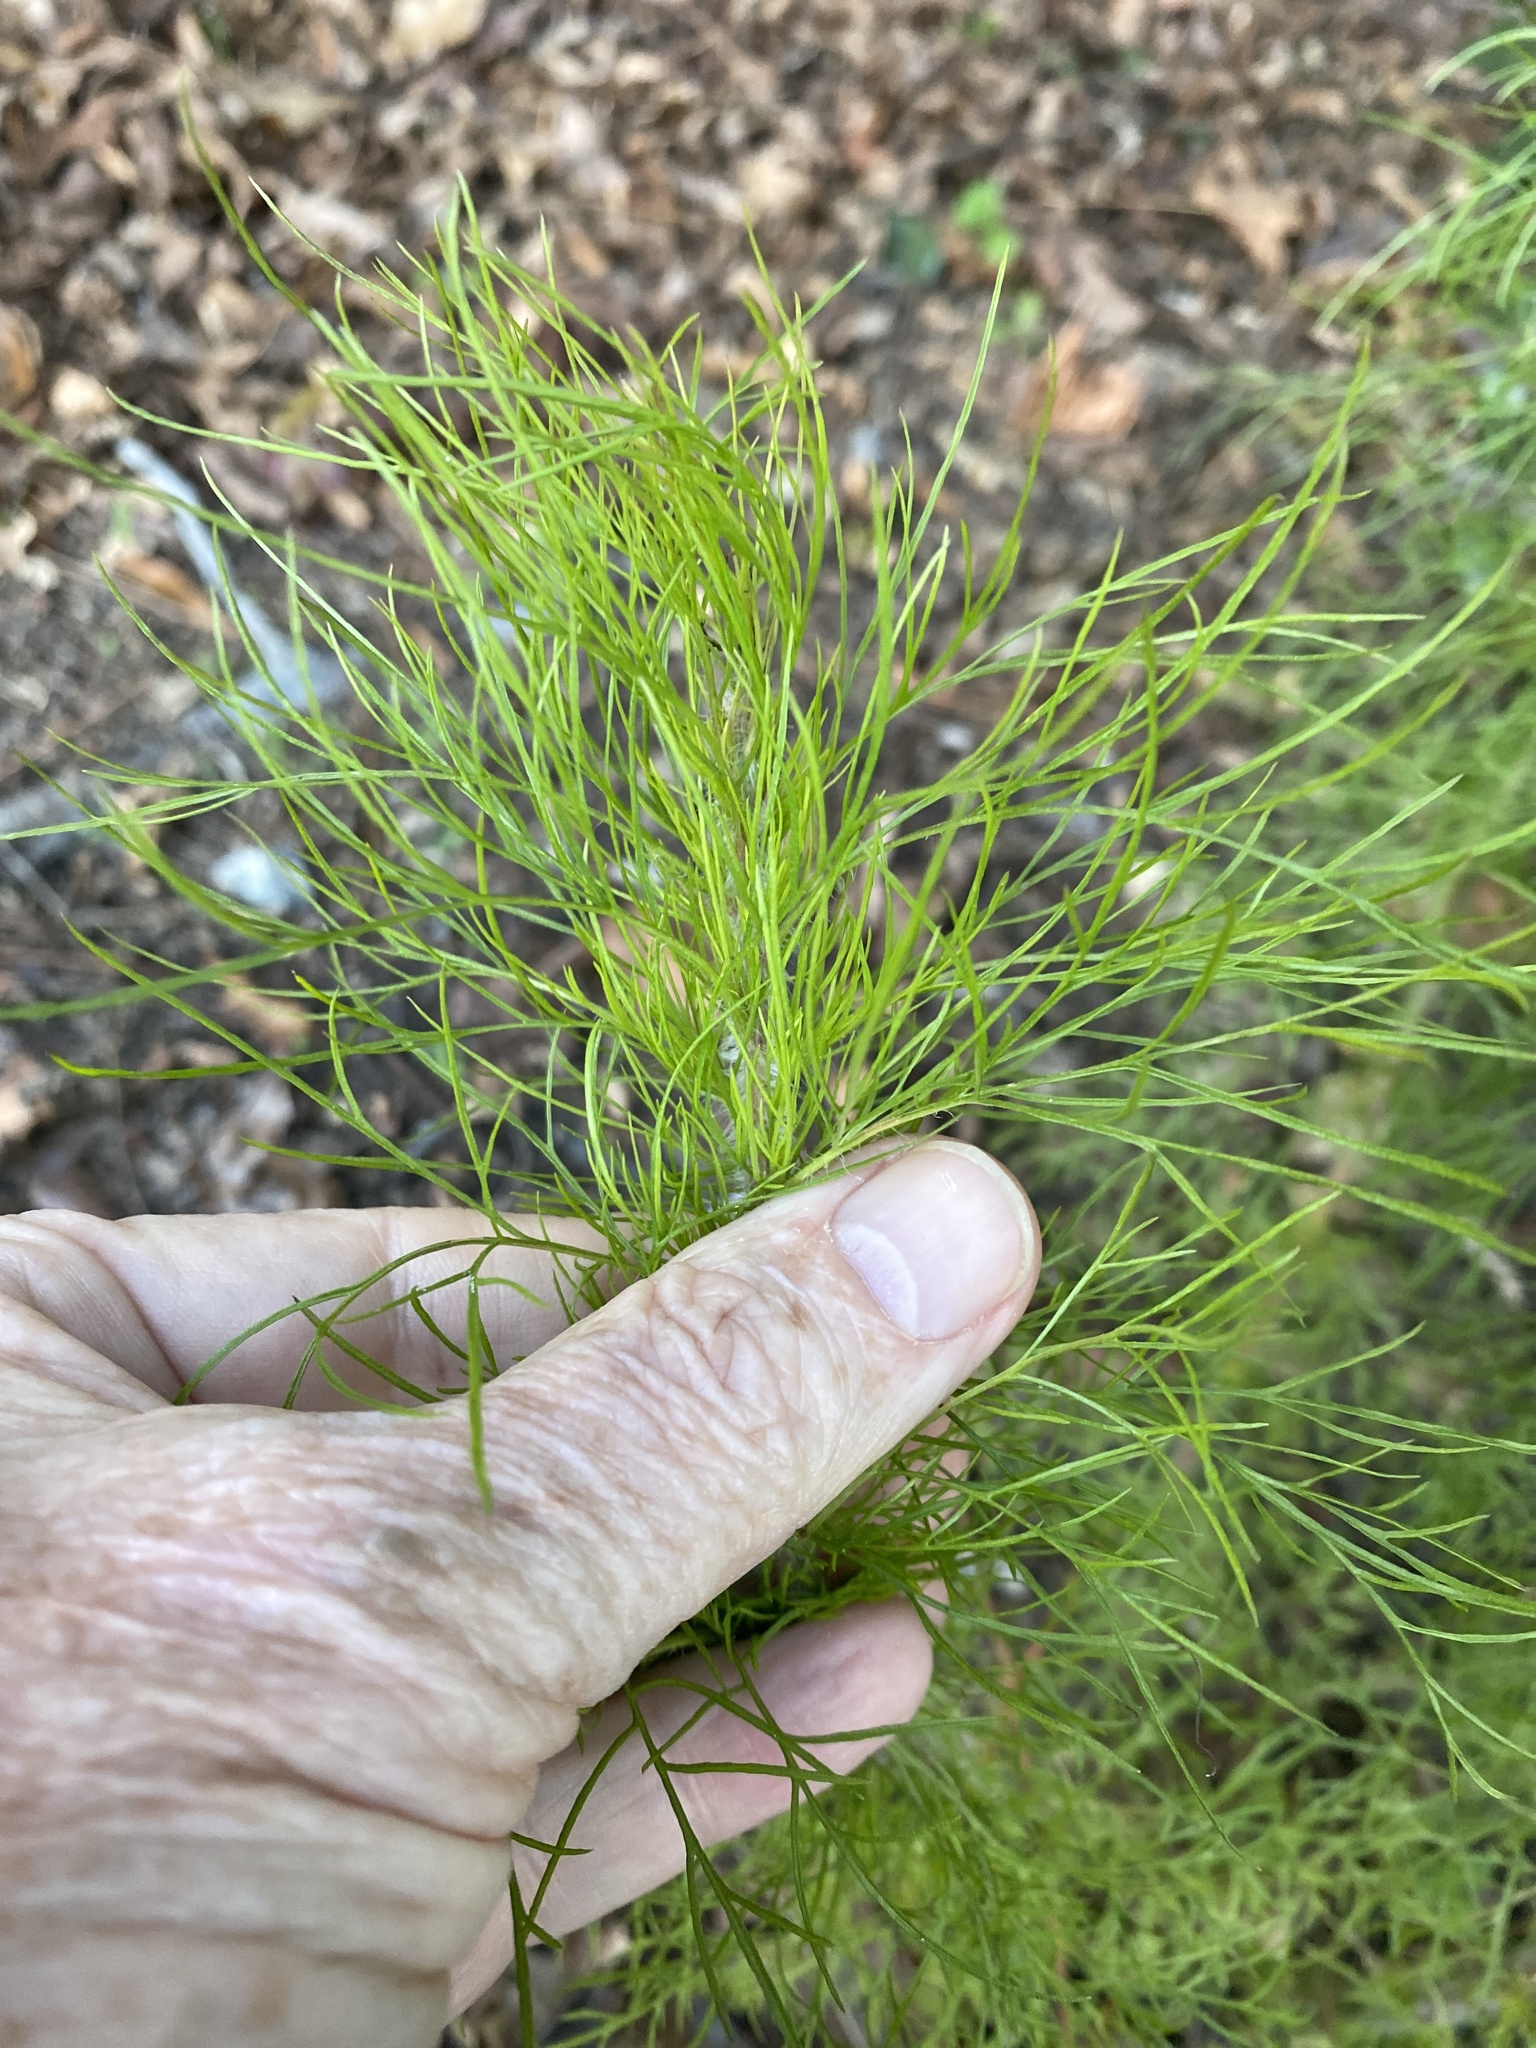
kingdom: Plantae
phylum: Tracheophyta
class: Magnoliopsida
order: Asterales
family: Asteraceae
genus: Eupatorium
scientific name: Eupatorium capillifolium
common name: Dog-fennel
